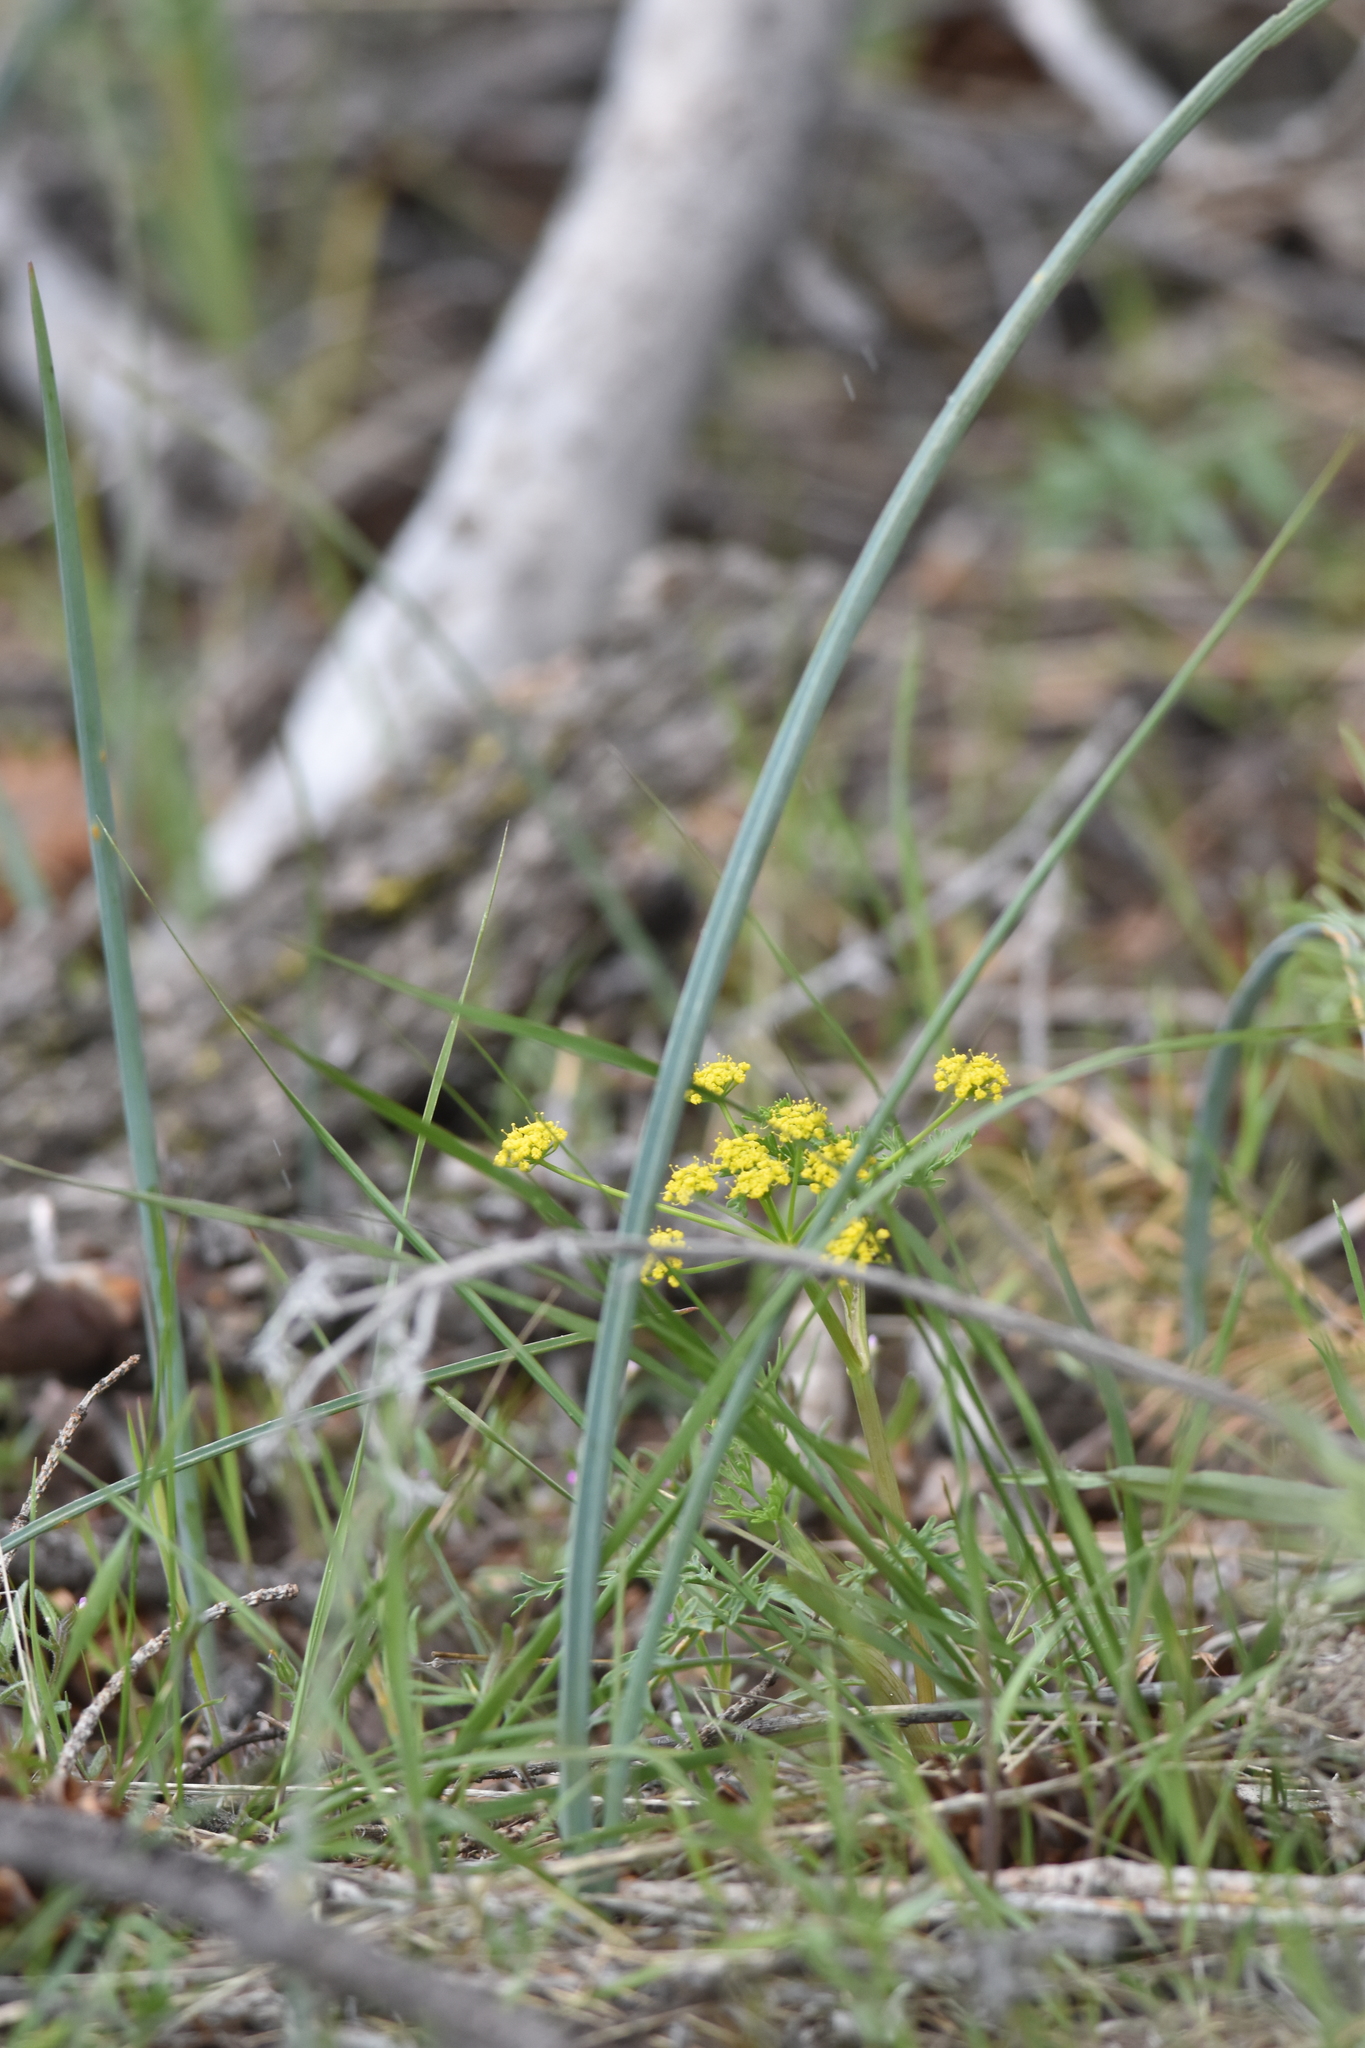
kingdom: Plantae
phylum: Tracheophyta
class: Liliopsida
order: Liliales
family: Liliaceae
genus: Calochortus
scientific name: Calochortus macrocarpus
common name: Green-band mariposa lily
